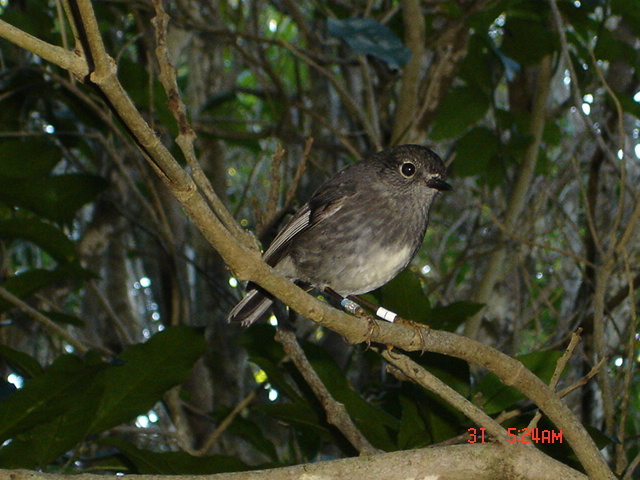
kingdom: Animalia
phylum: Chordata
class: Aves
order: Passeriformes
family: Petroicidae
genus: Petroica
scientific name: Petroica australis
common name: New zealand robin
